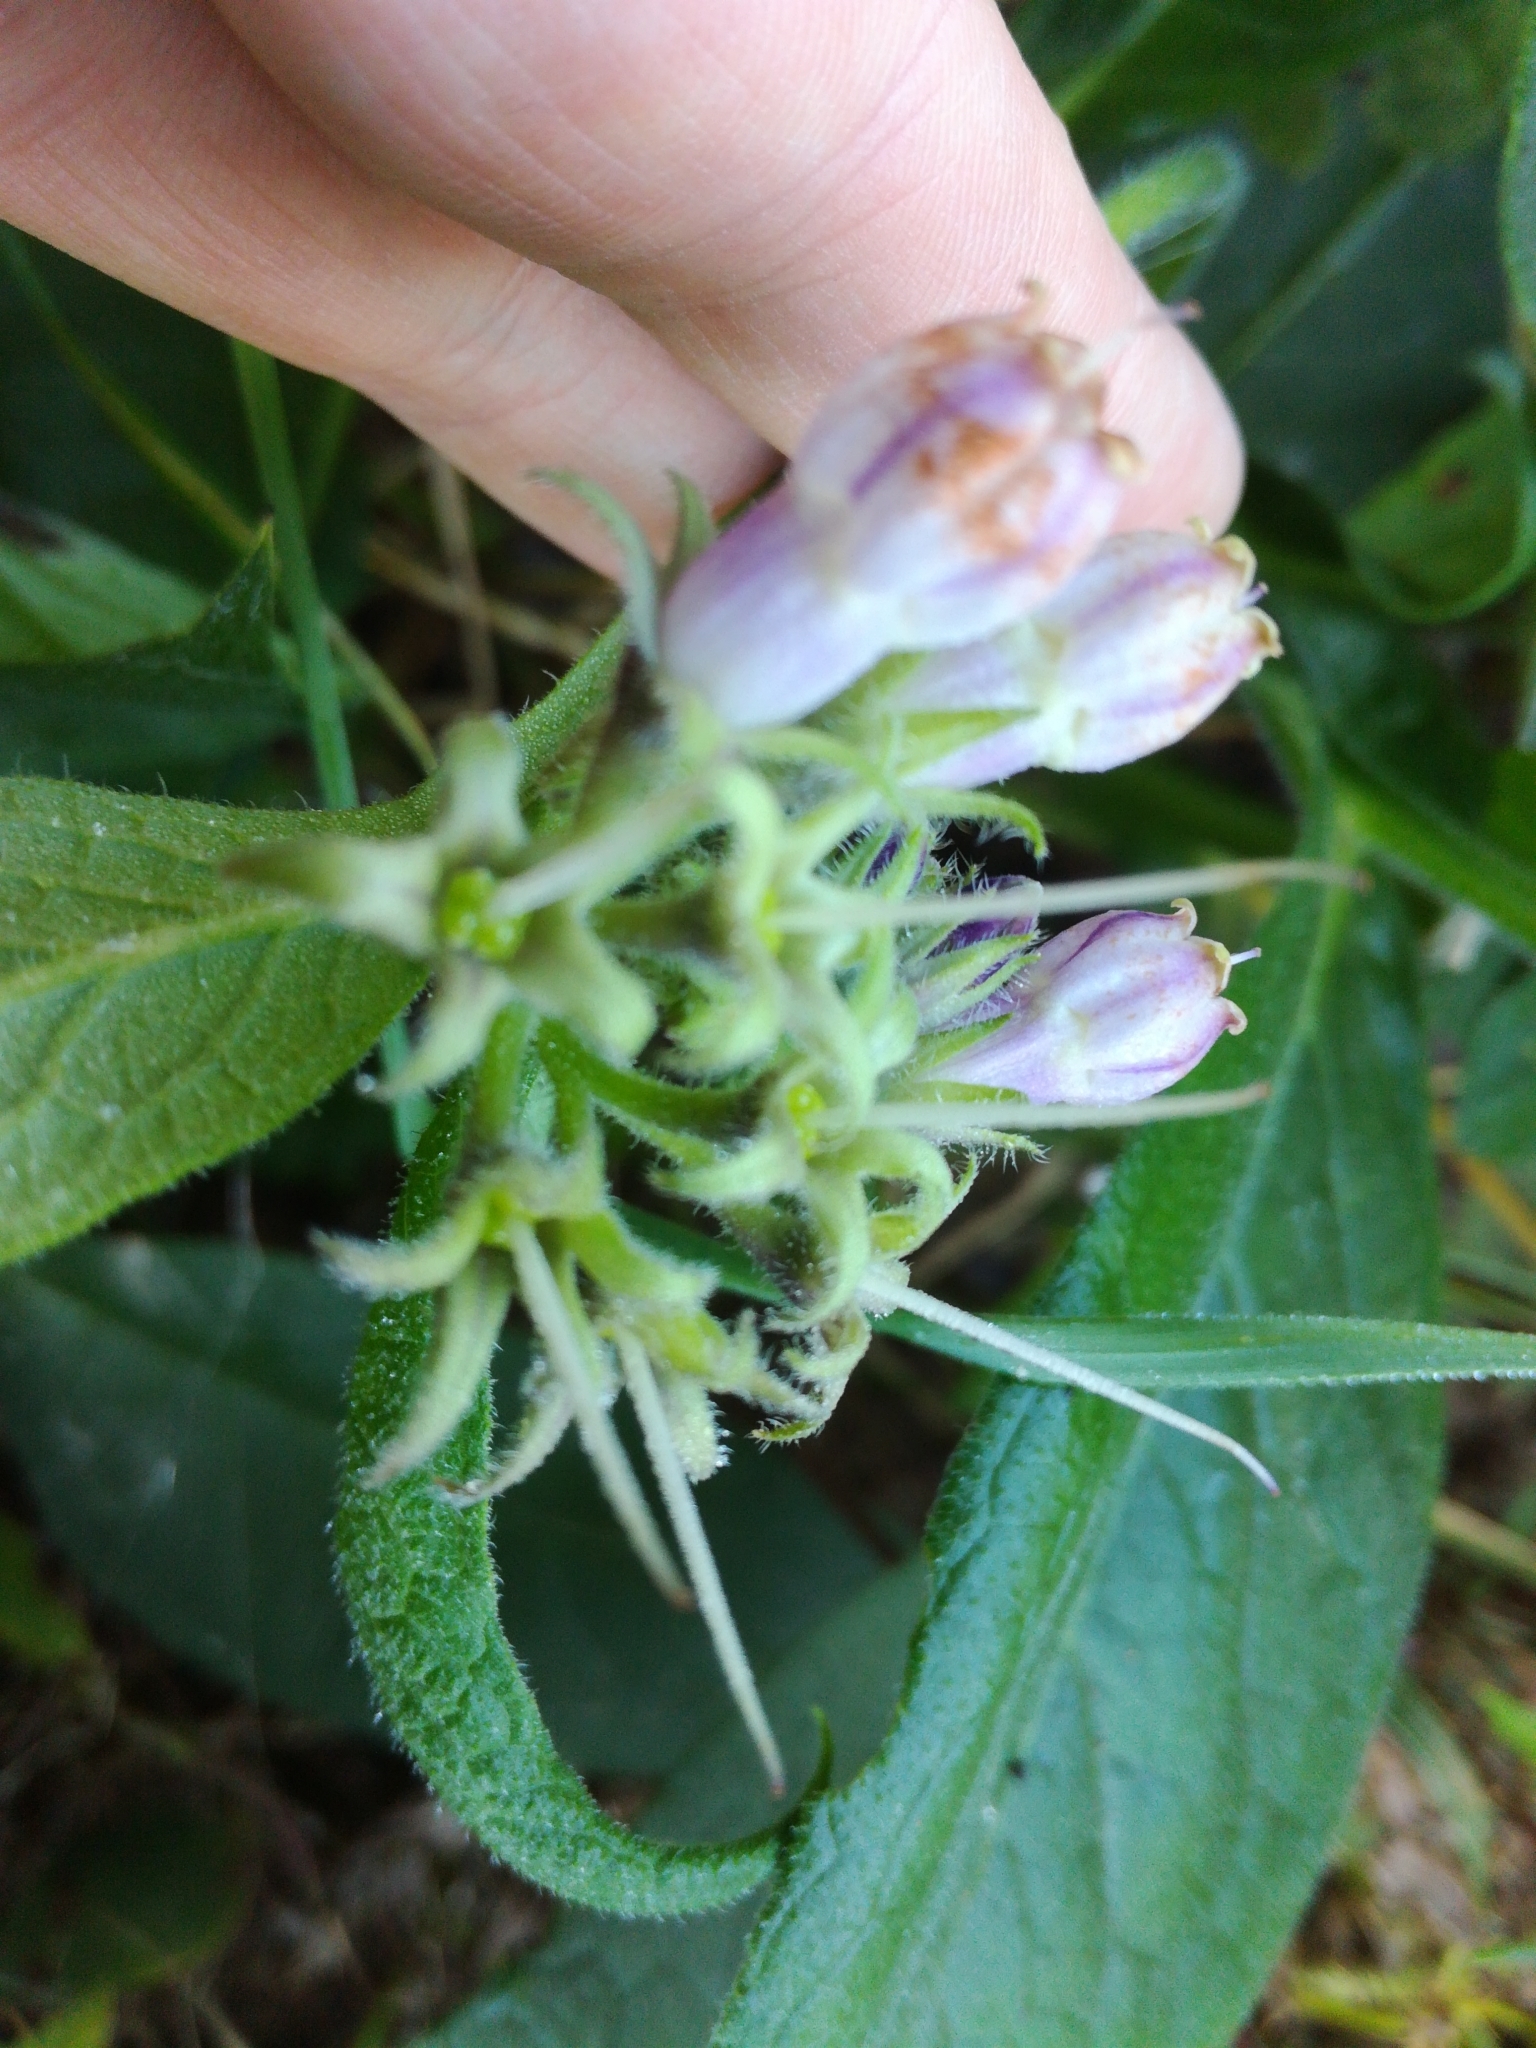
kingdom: Plantae
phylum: Tracheophyta
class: Magnoliopsida
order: Boraginales
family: Boraginaceae
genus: Symphytum
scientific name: Symphytum officinale
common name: Common comfrey
